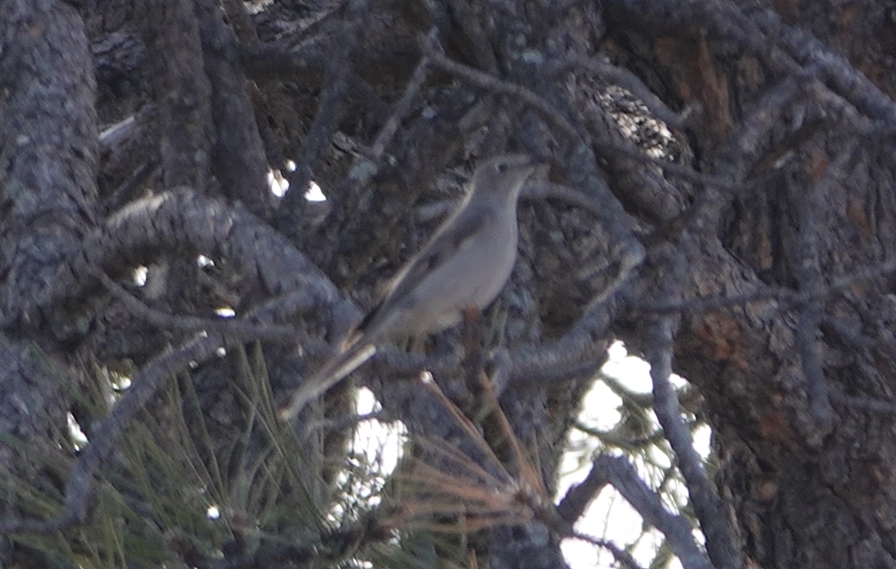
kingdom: Animalia
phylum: Chordata
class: Aves
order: Passeriformes
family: Turdidae
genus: Myadestes
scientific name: Myadestes townsendi
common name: Townsend's solitaire
